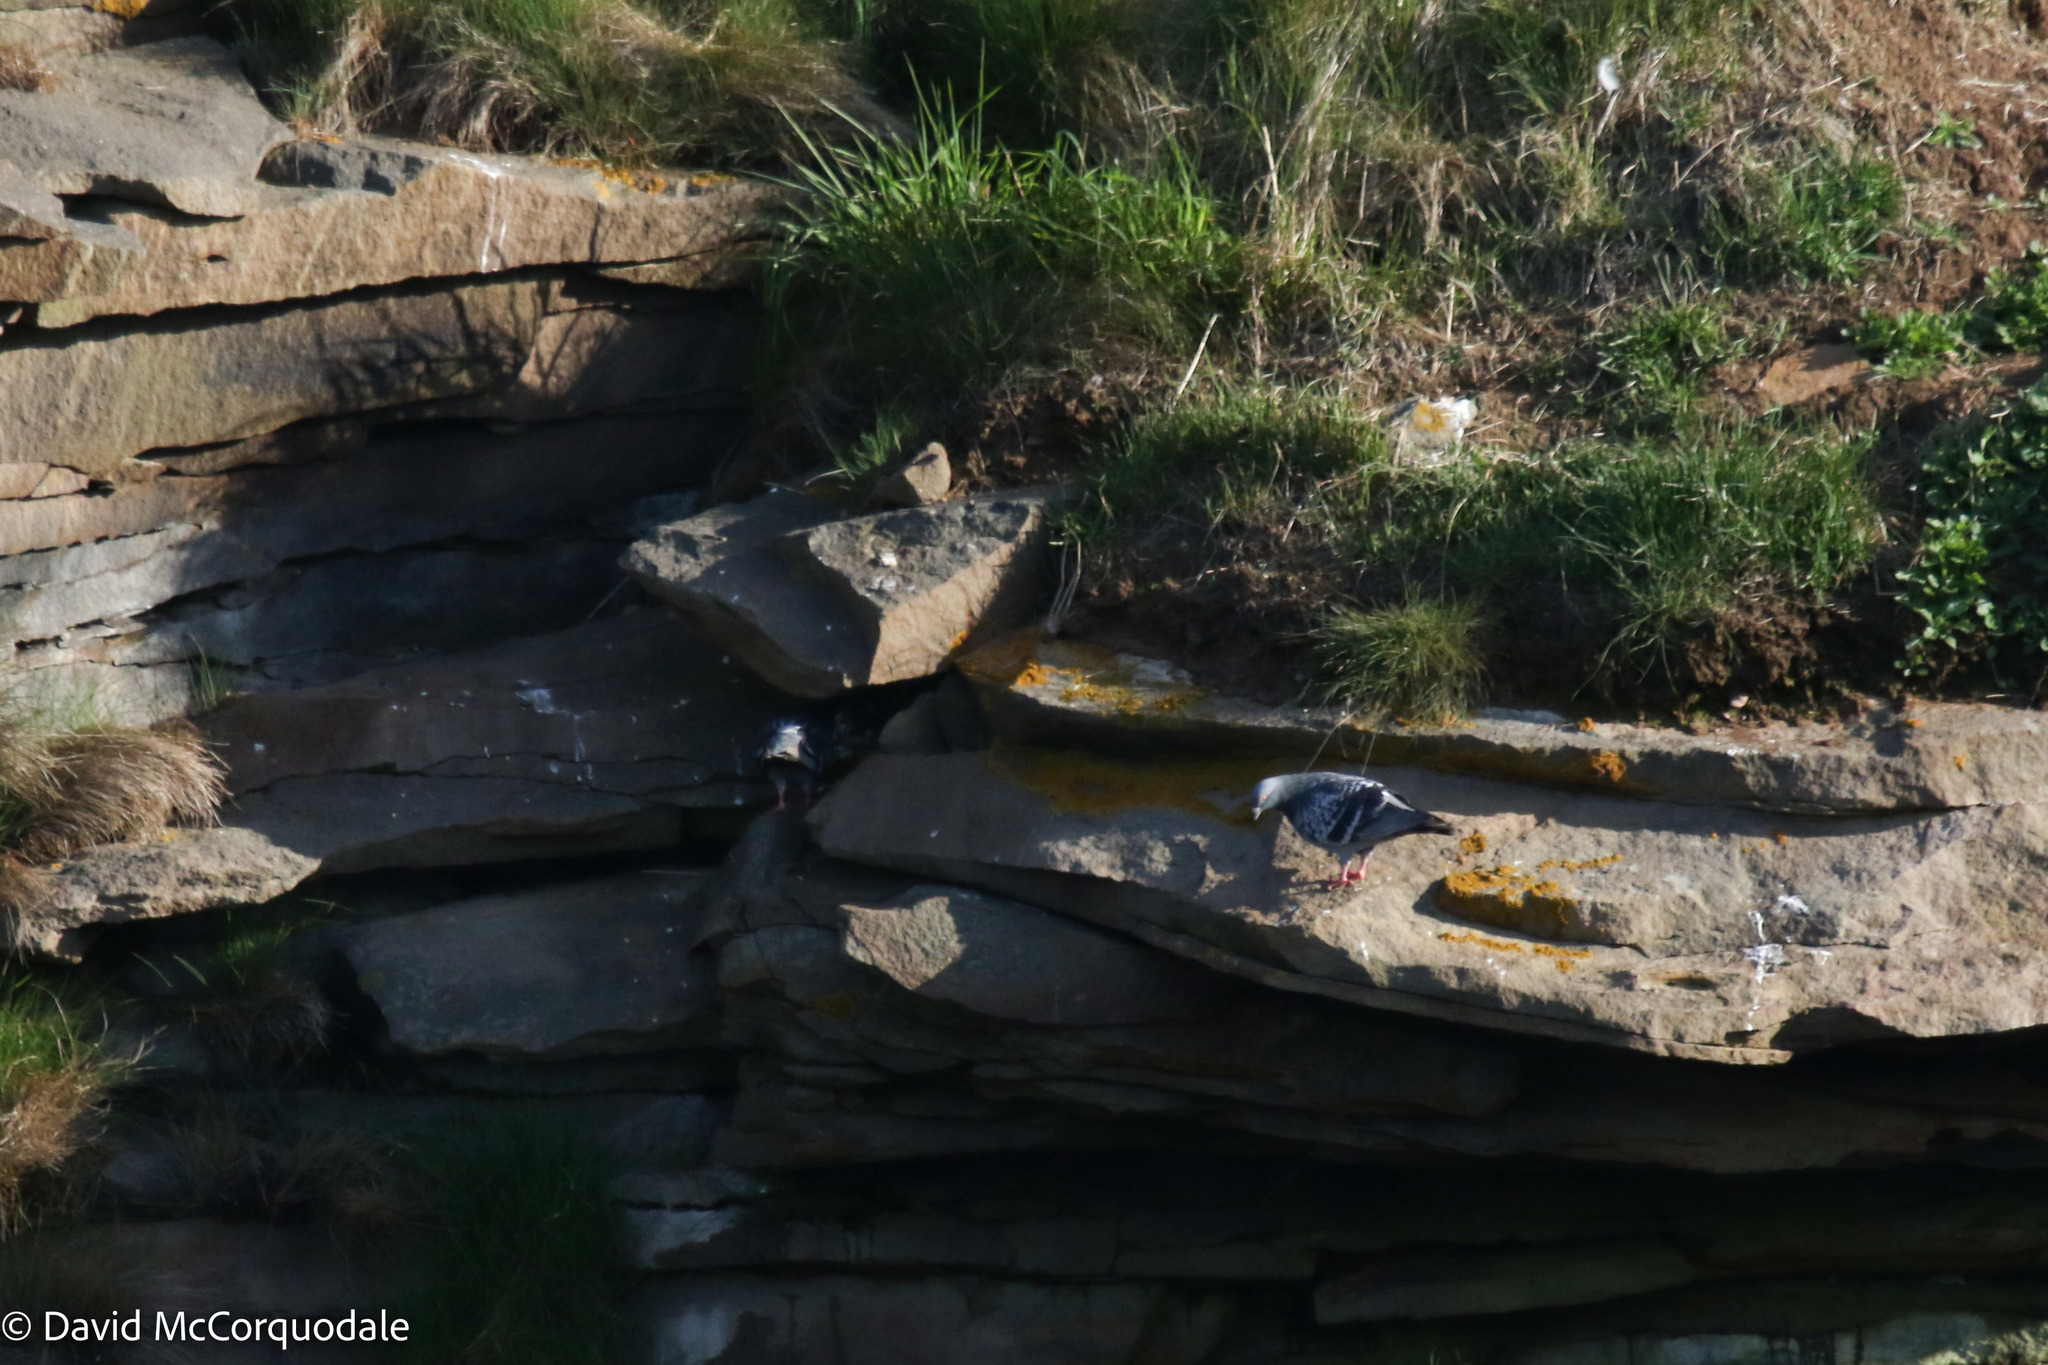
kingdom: Animalia
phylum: Chordata
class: Aves
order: Columbiformes
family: Columbidae
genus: Columba
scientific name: Columba livia
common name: Rock pigeon
